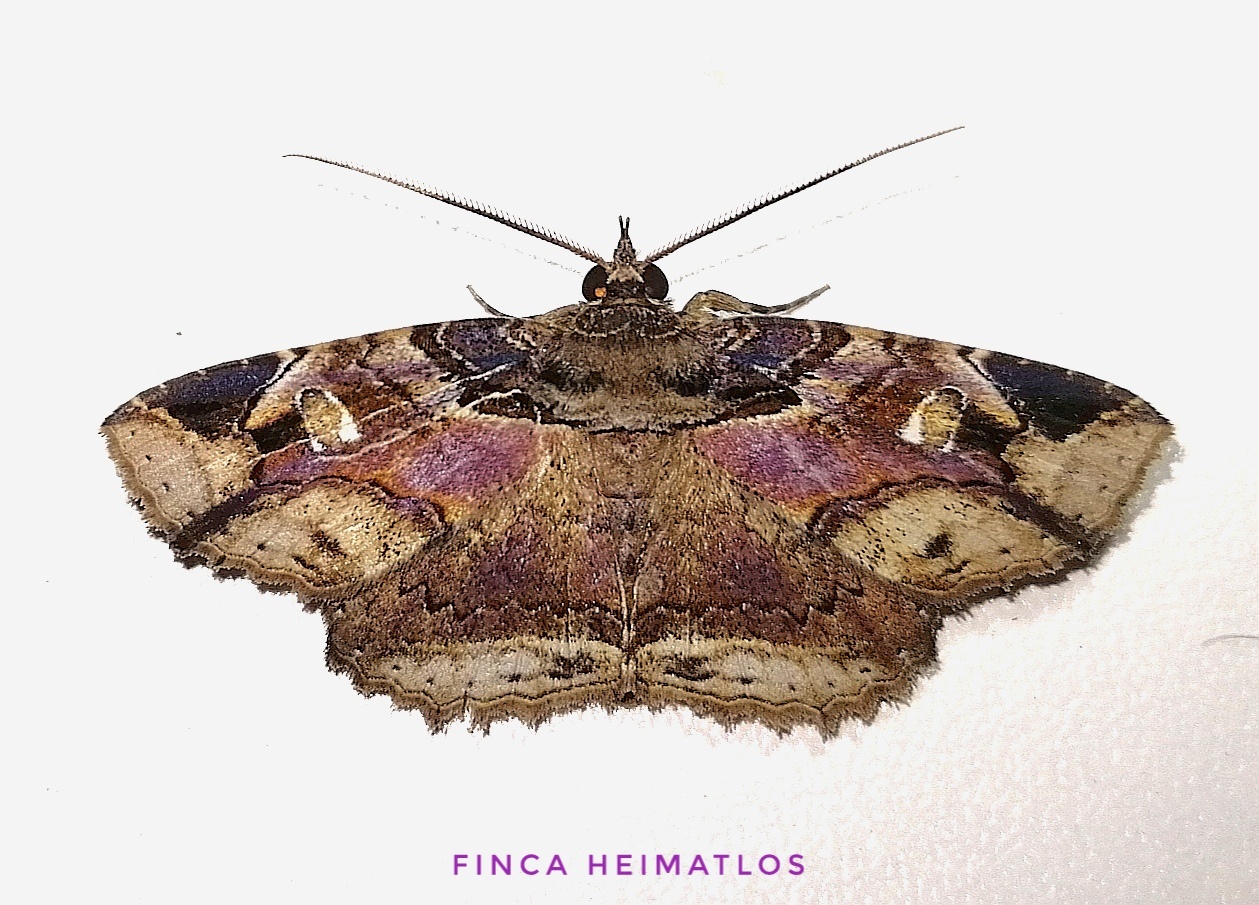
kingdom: Animalia
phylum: Arthropoda
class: Insecta
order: Lepidoptera
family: Erebidae
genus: Peteroma
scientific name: Peteroma denticulata
